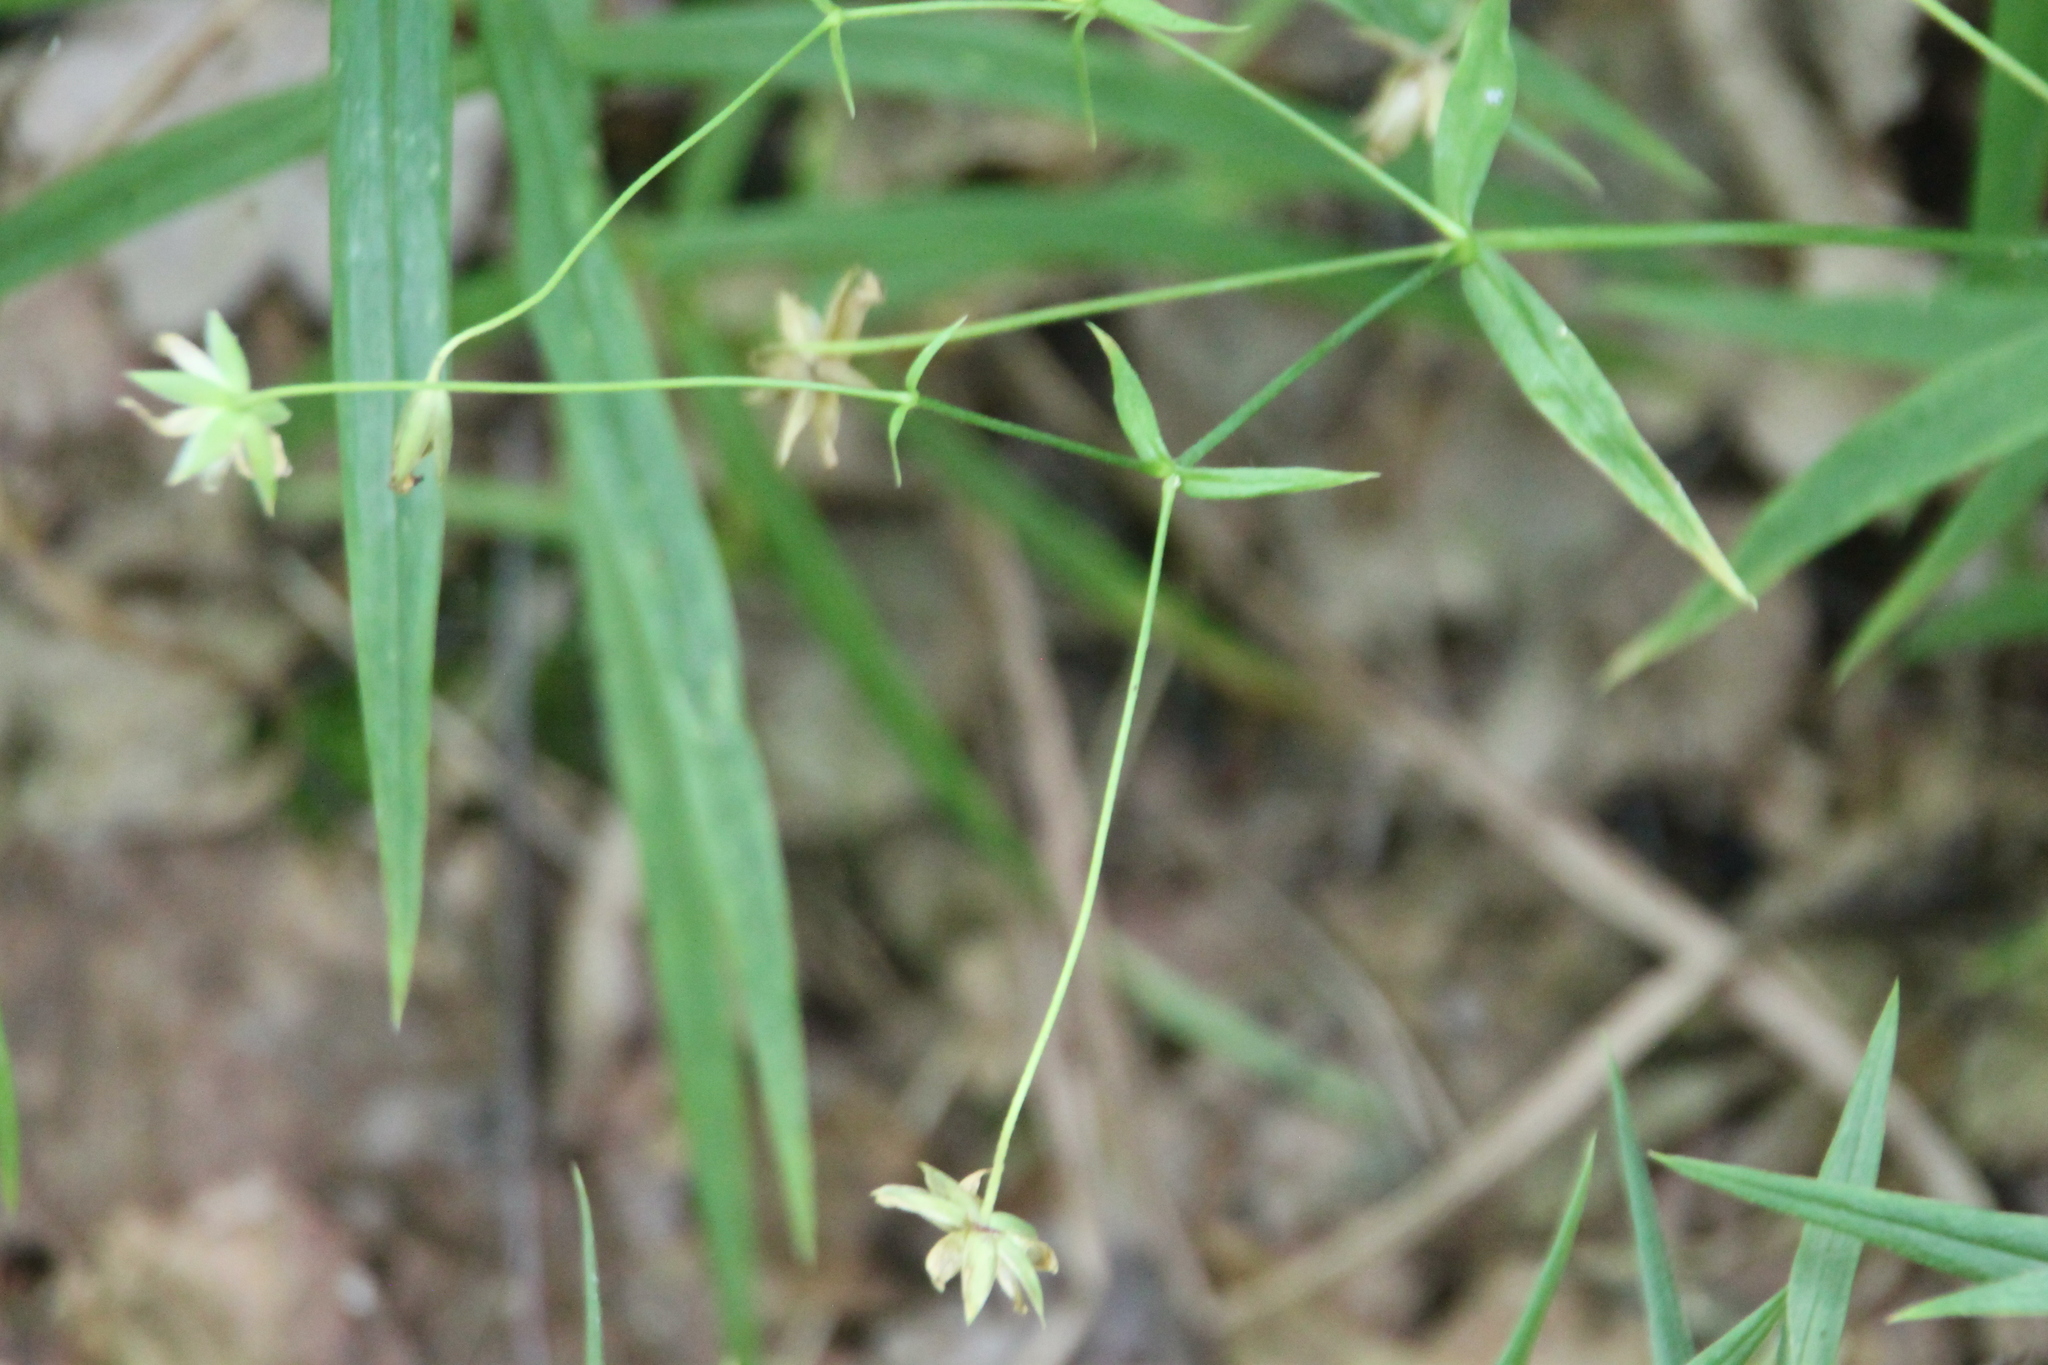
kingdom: Plantae
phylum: Tracheophyta
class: Magnoliopsida
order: Caryophyllales
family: Caryophyllaceae
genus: Rabelera
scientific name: Rabelera holostea
